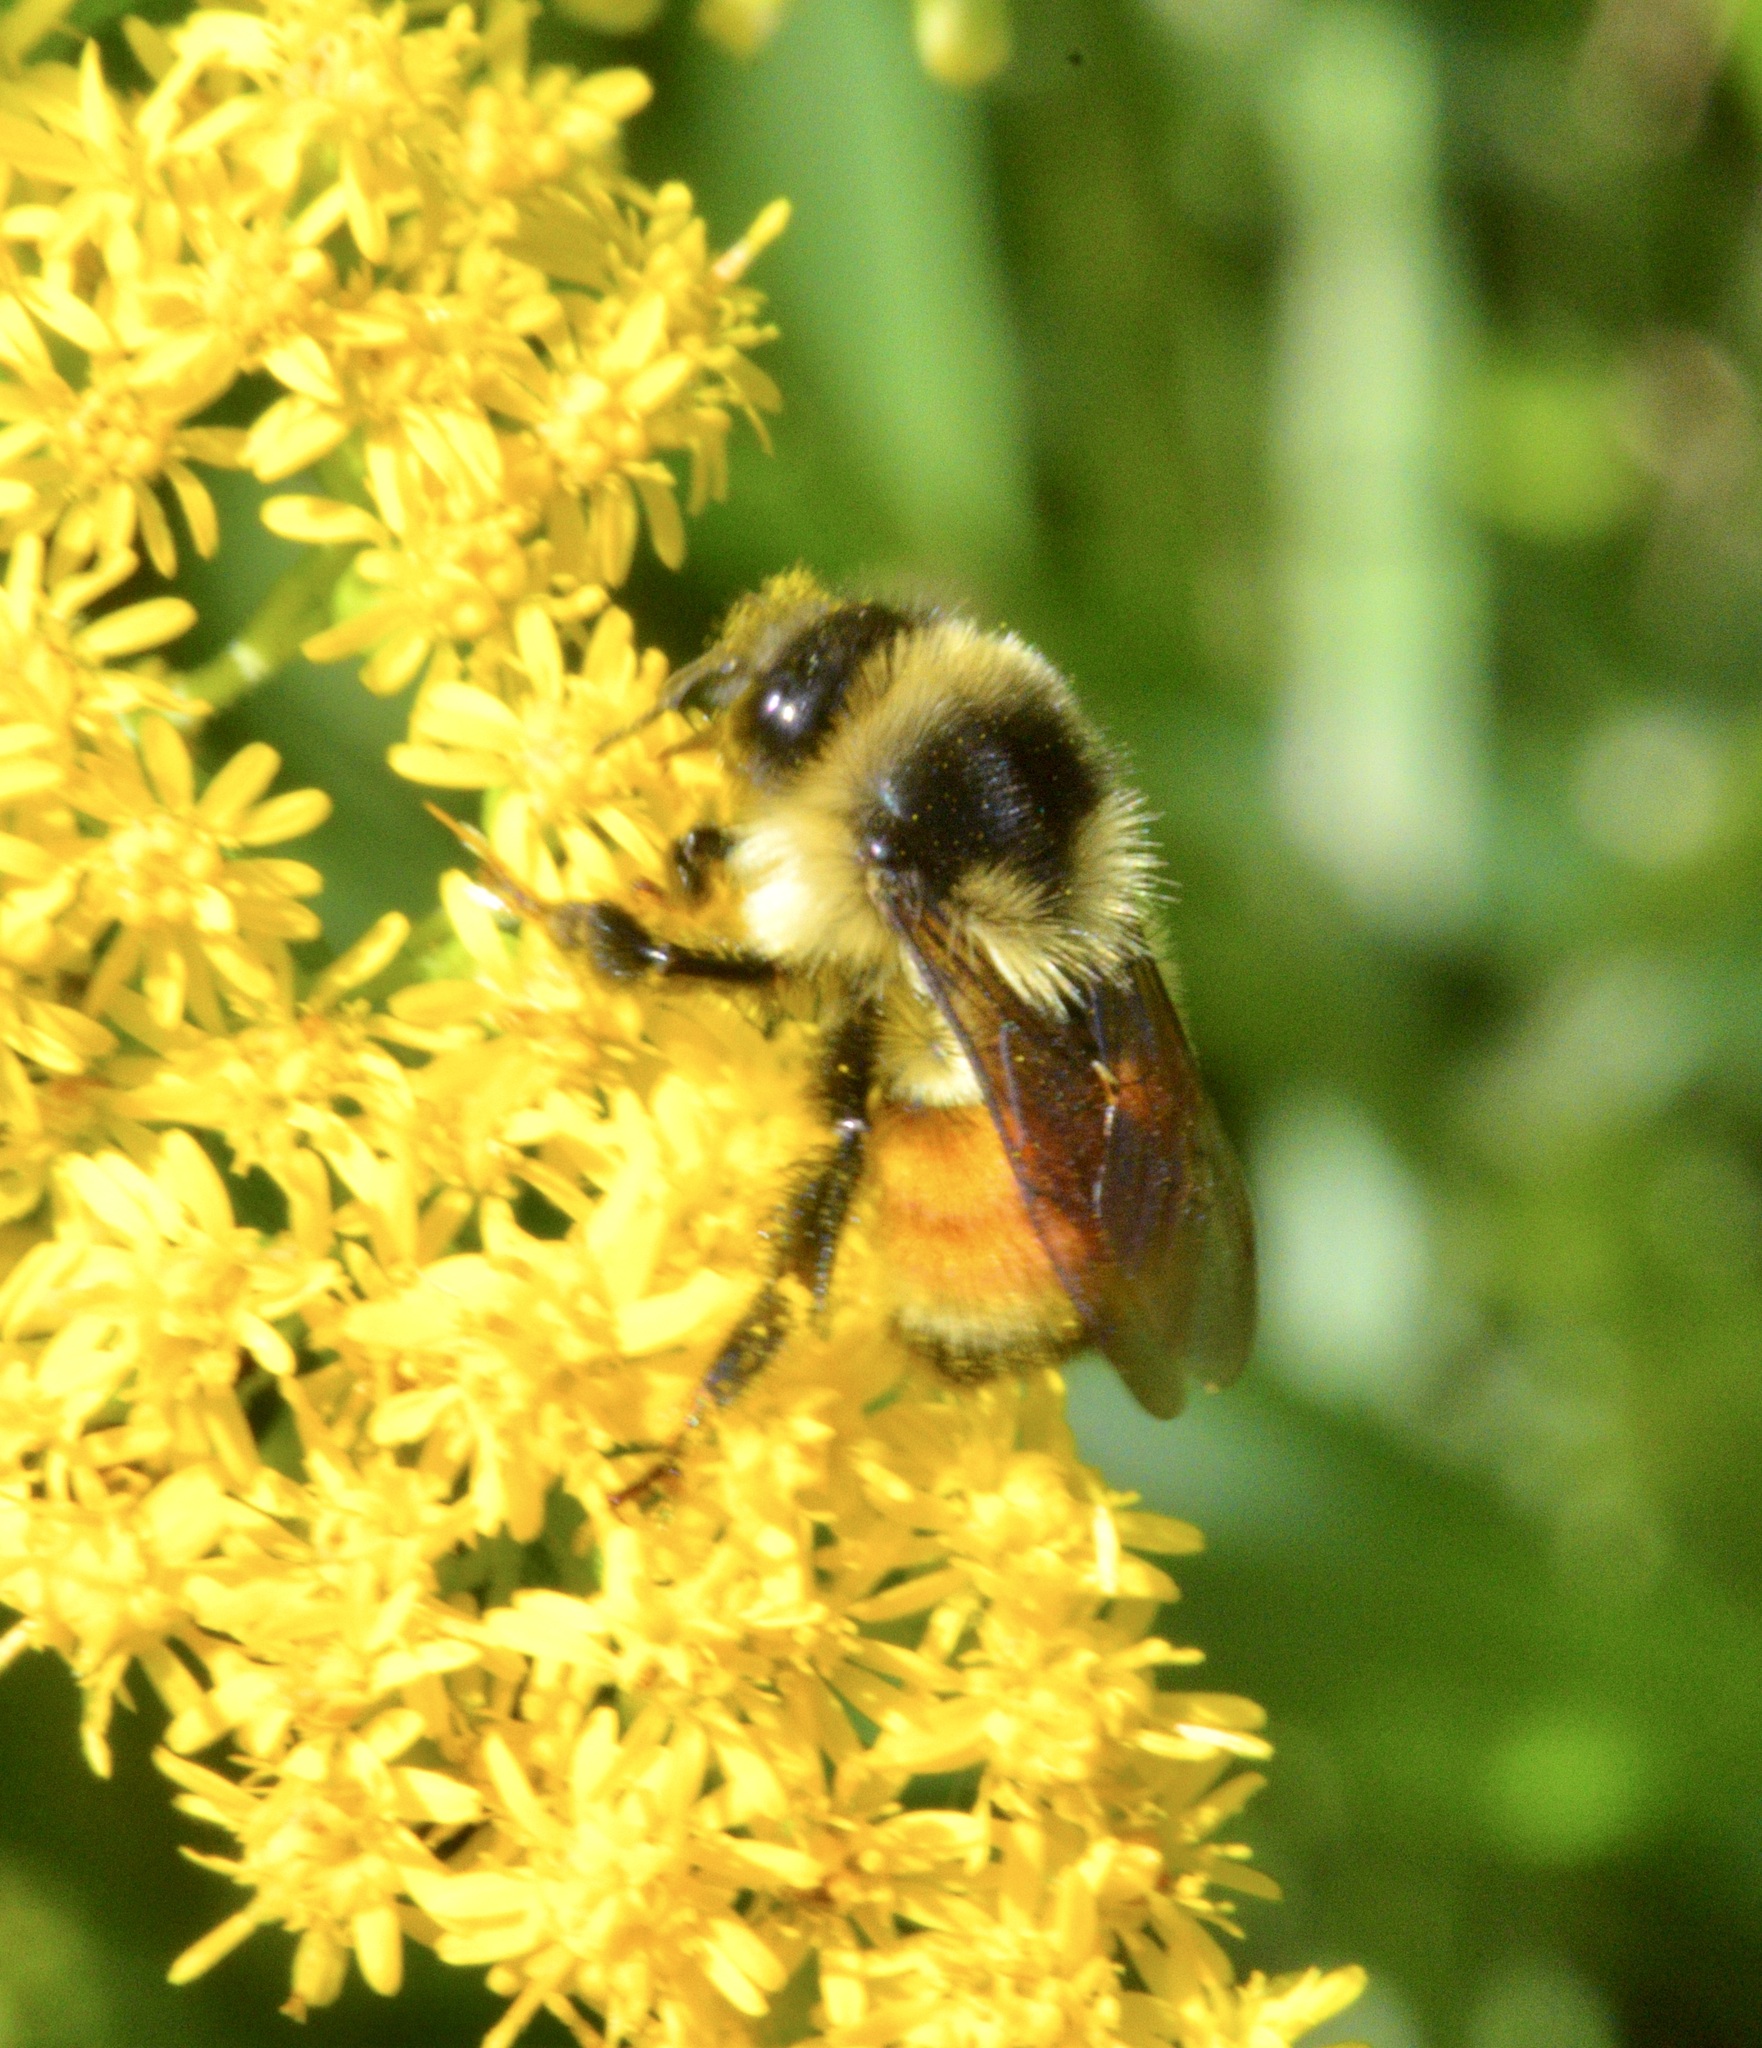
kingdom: Animalia
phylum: Arthropoda
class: Insecta
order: Hymenoptera
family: Apidae
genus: Bombus
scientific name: Bombus ternarius
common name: Tri-colored bumble bee
